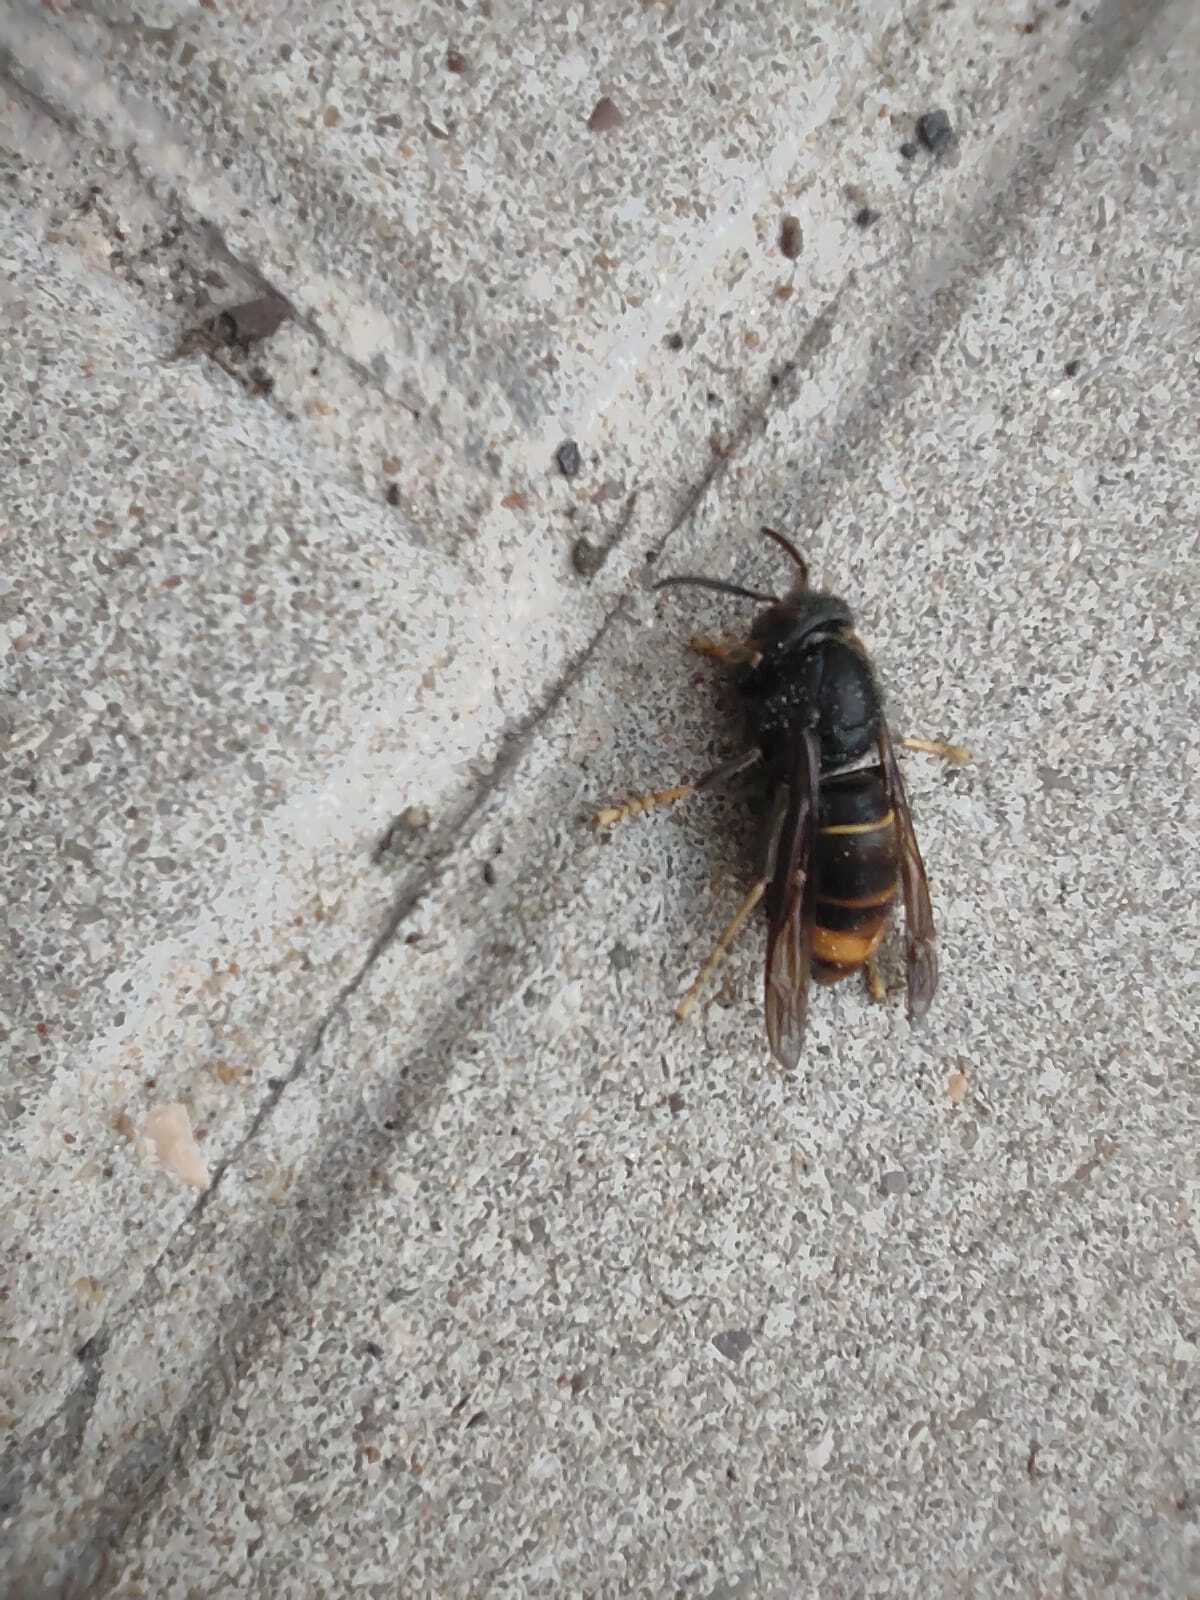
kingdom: Animalia
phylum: Arthropoda
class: Insecta
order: Hymenoptera
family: Vespidae
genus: Vespa
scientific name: Vespa velutina
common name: Asian hornet
